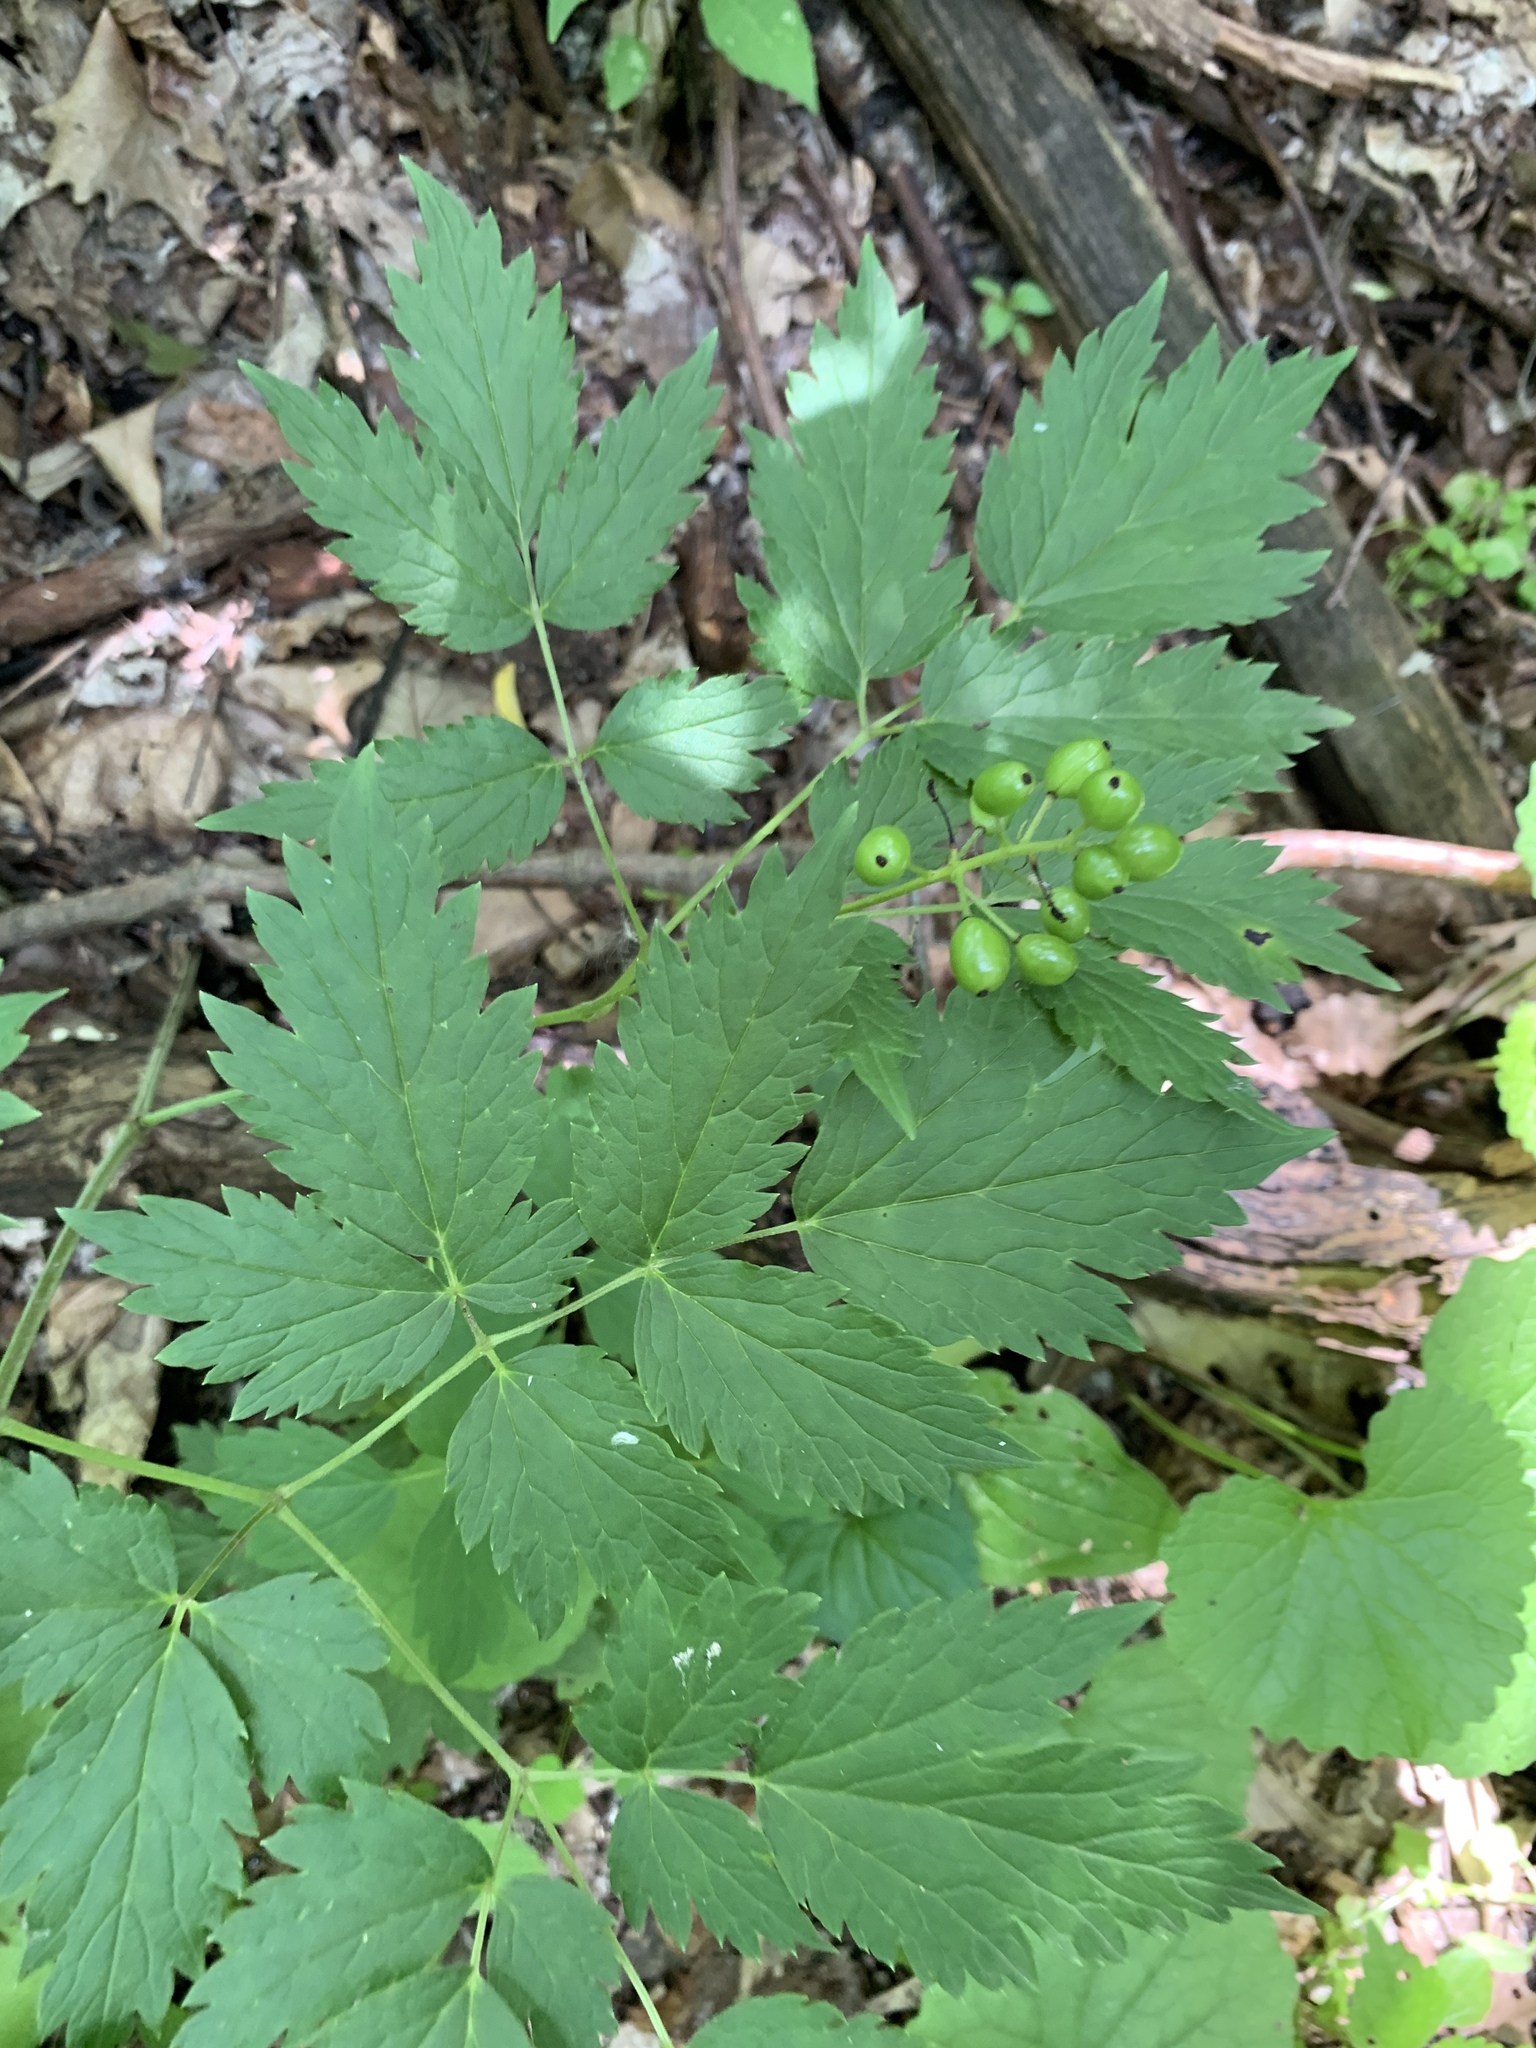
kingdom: Plantae
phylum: Tracheophyta
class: Magnoliopsida
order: Ranunculales
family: Ranunculaceae
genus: Actaea
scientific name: Actaea rubra
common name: Red baneberry
